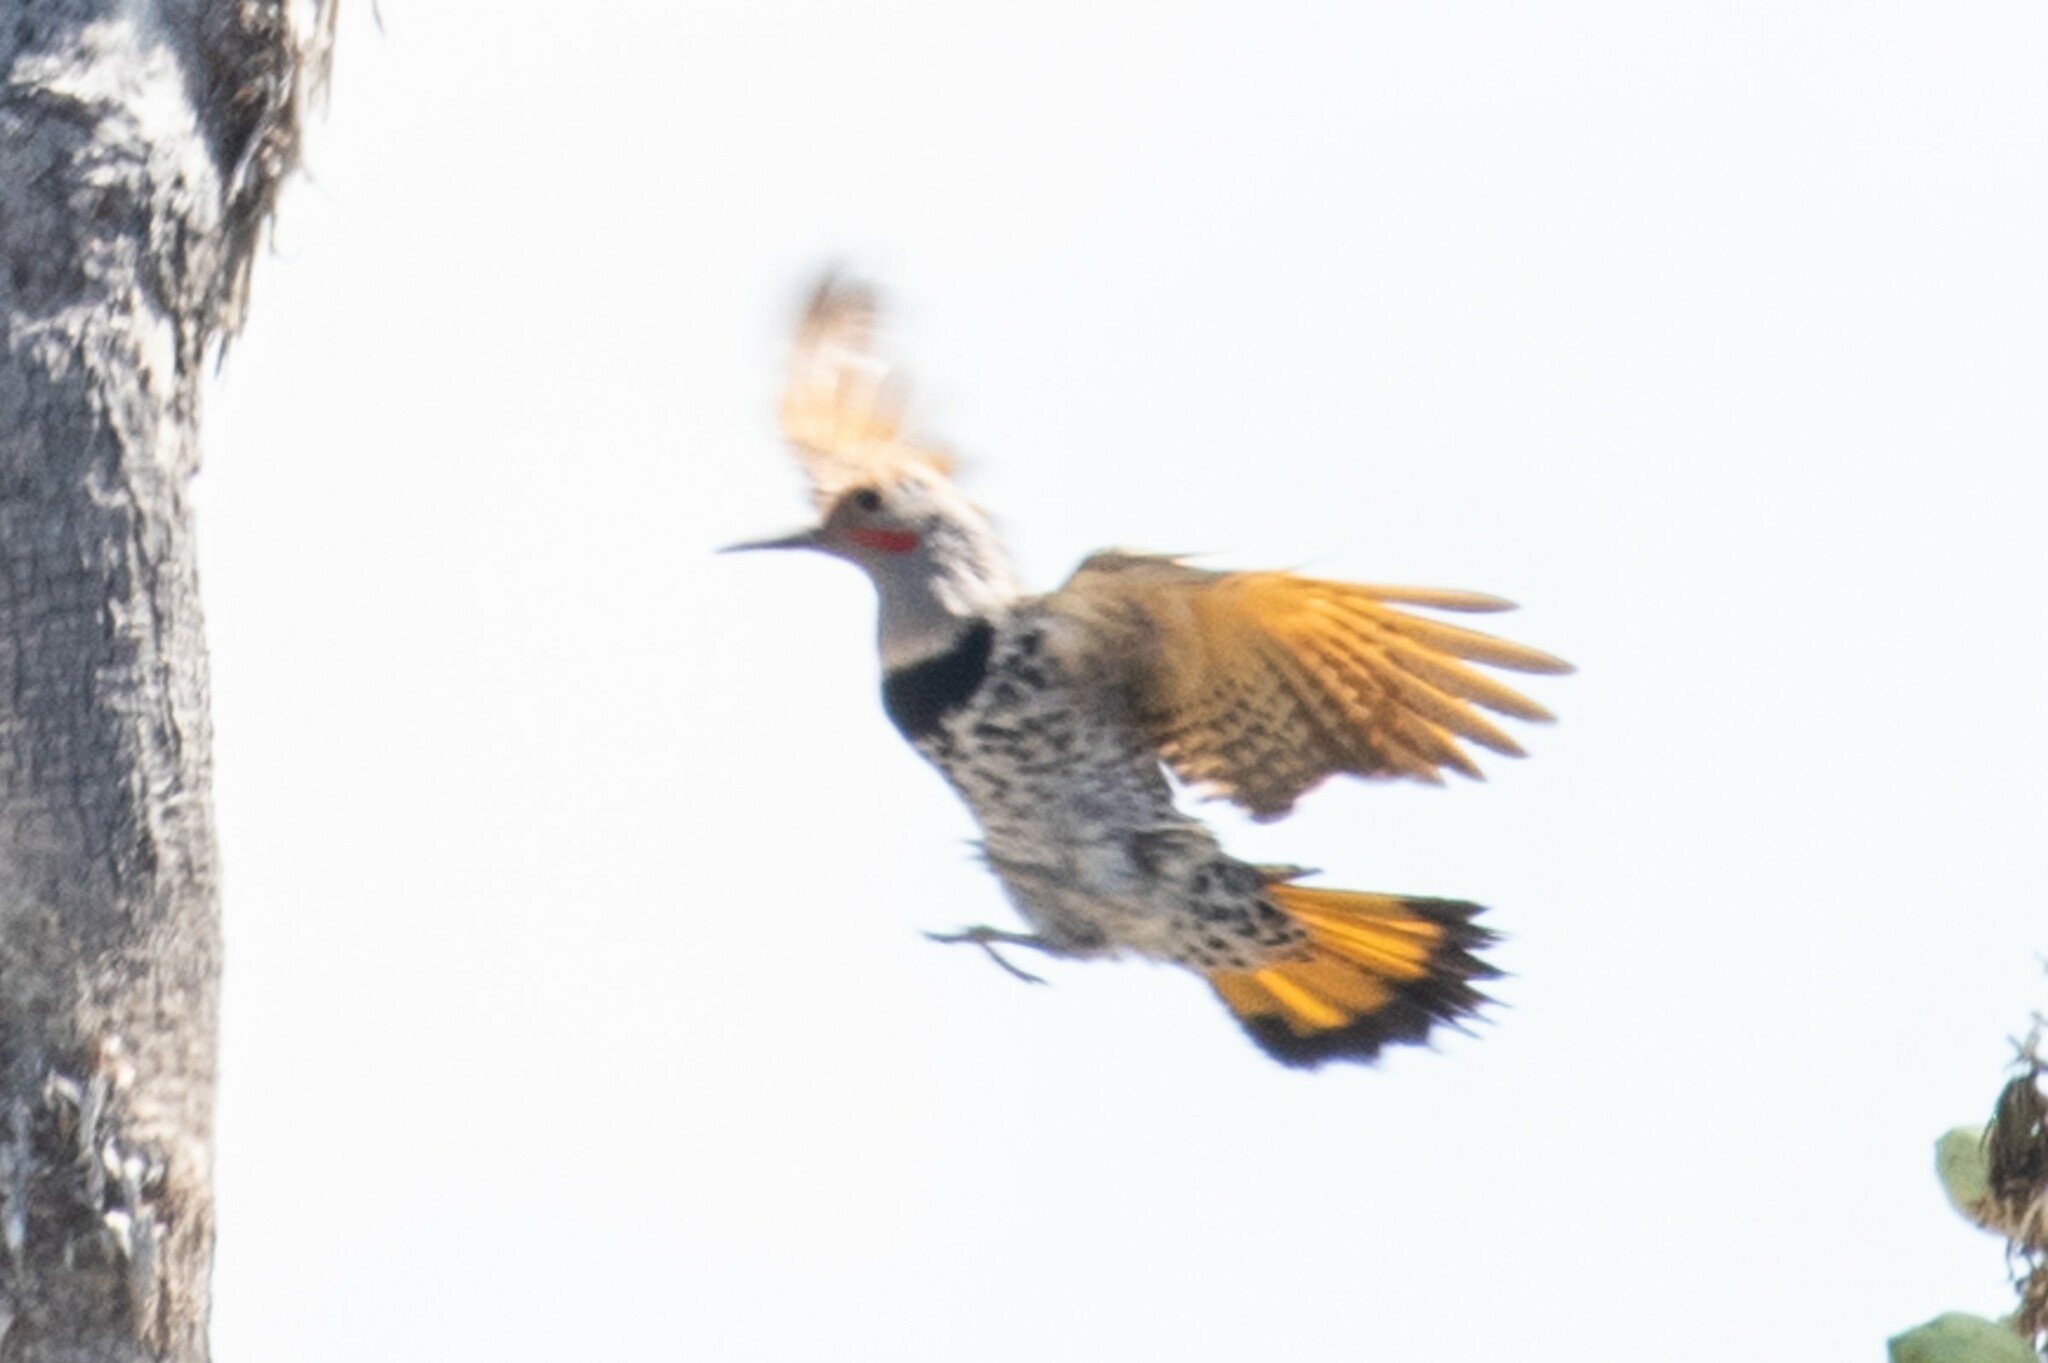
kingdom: Animalia
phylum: Chordata
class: Aves
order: Piciformes
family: Picidae
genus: Colaptes
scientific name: Colaptes chrysoides
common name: Gilded flicker
